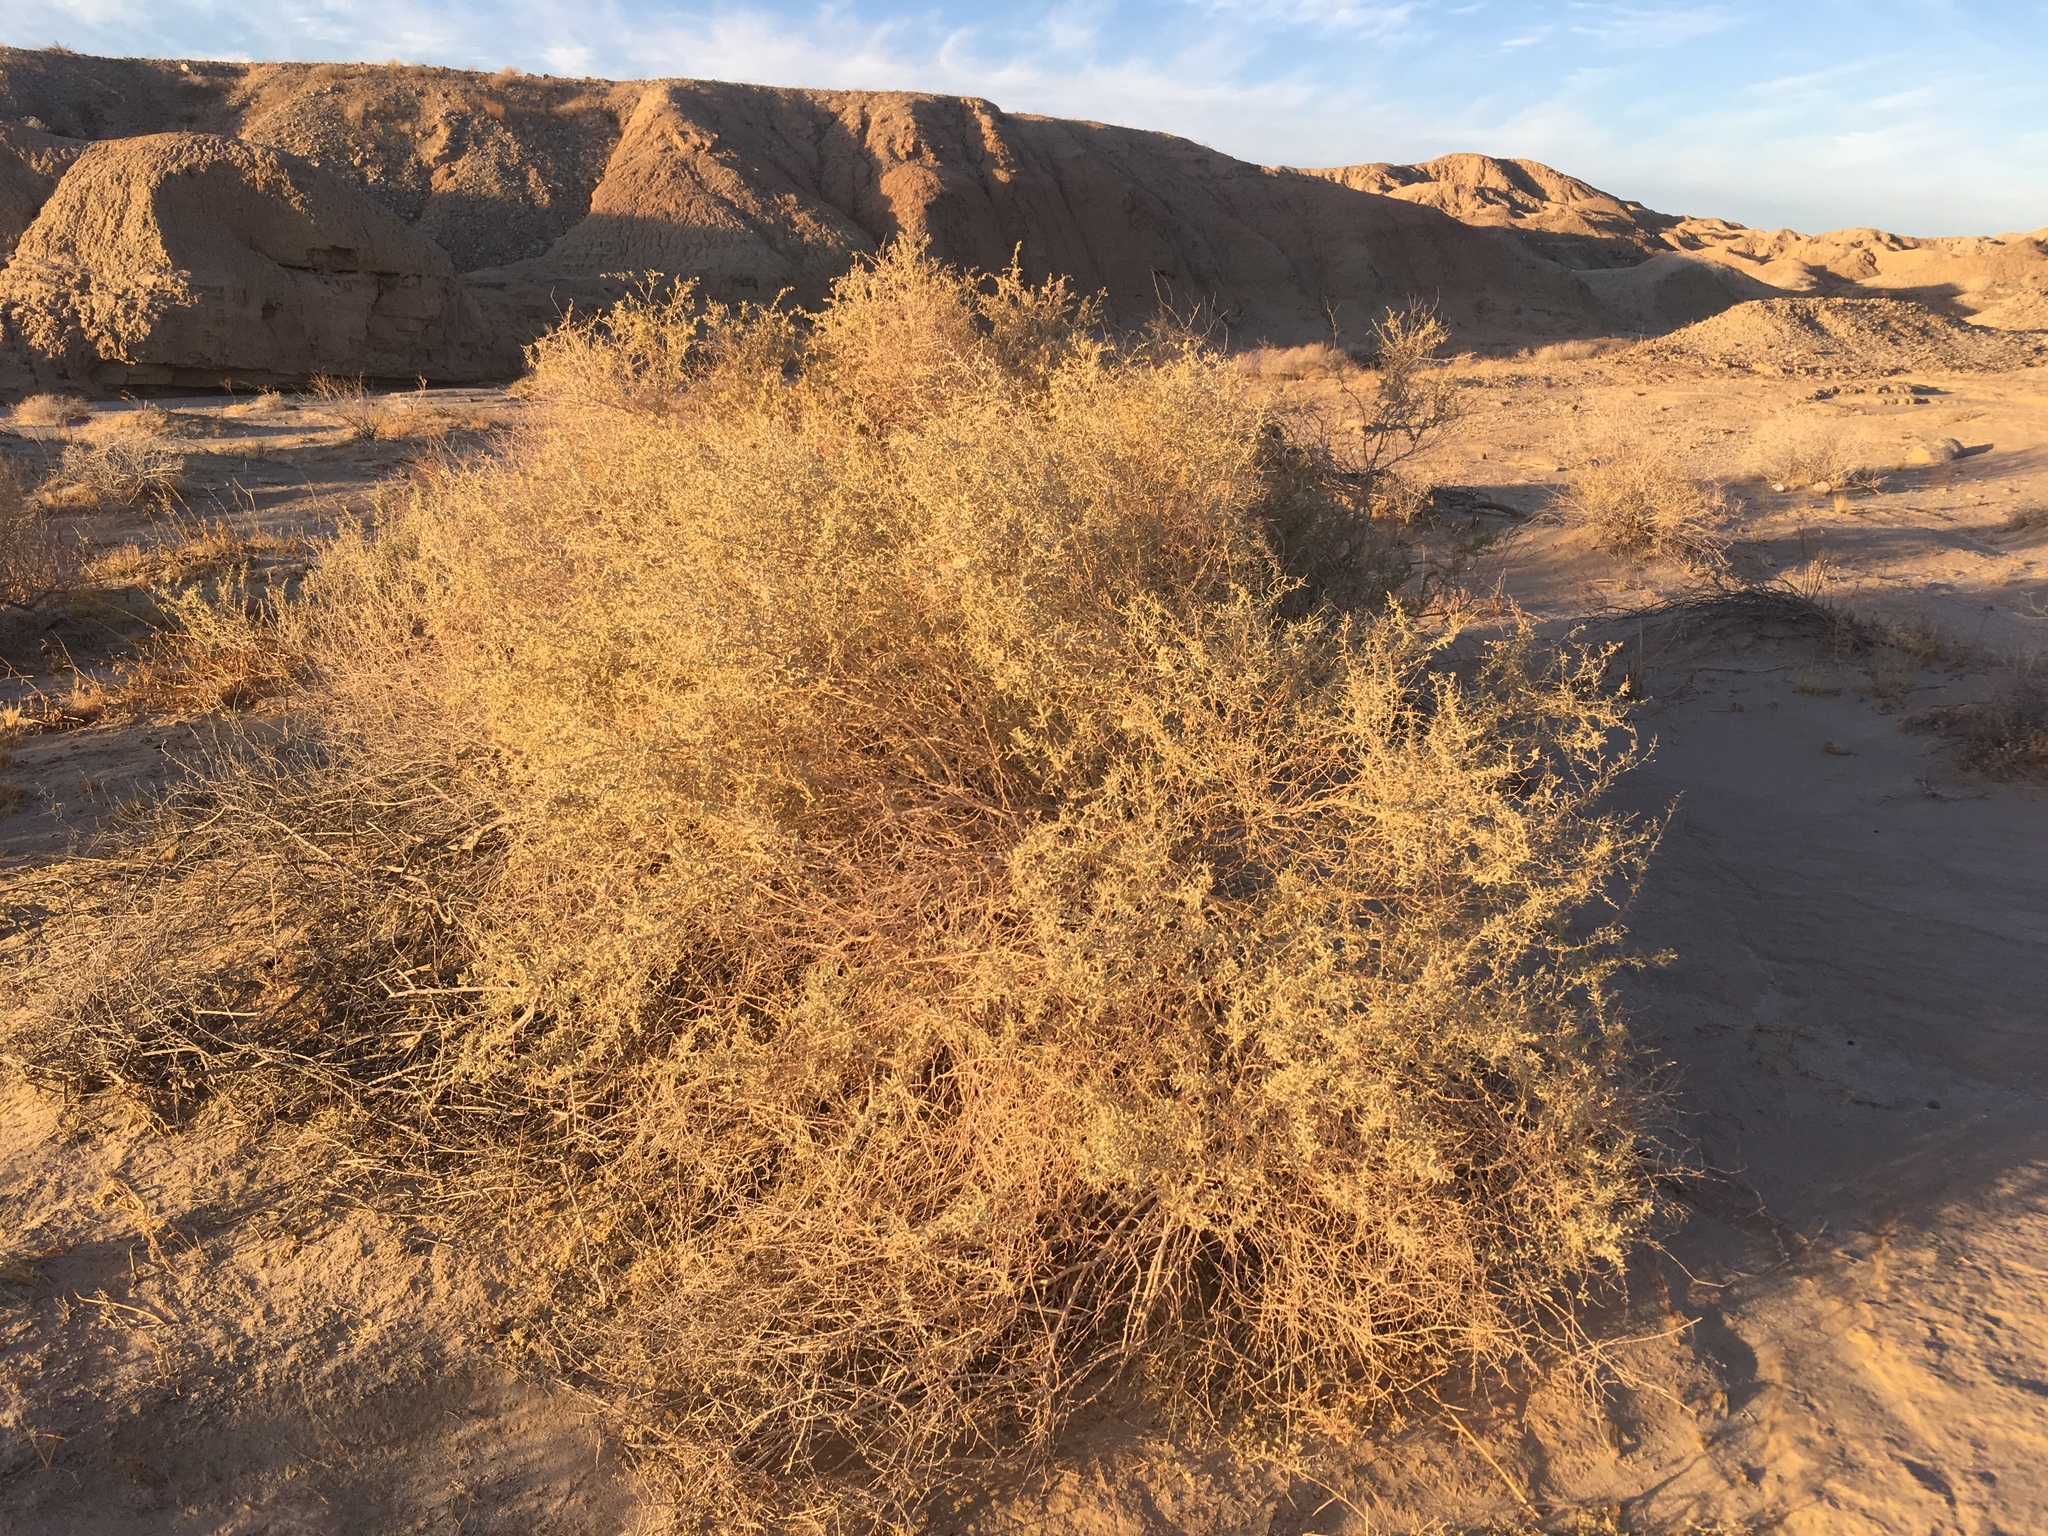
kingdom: Plantae
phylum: Tracheophyta
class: Magnoliopsida
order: Caryophyllales
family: Amaranthaceae
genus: Atriplex
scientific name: Atriplex canescens
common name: Four-wing saltbush
